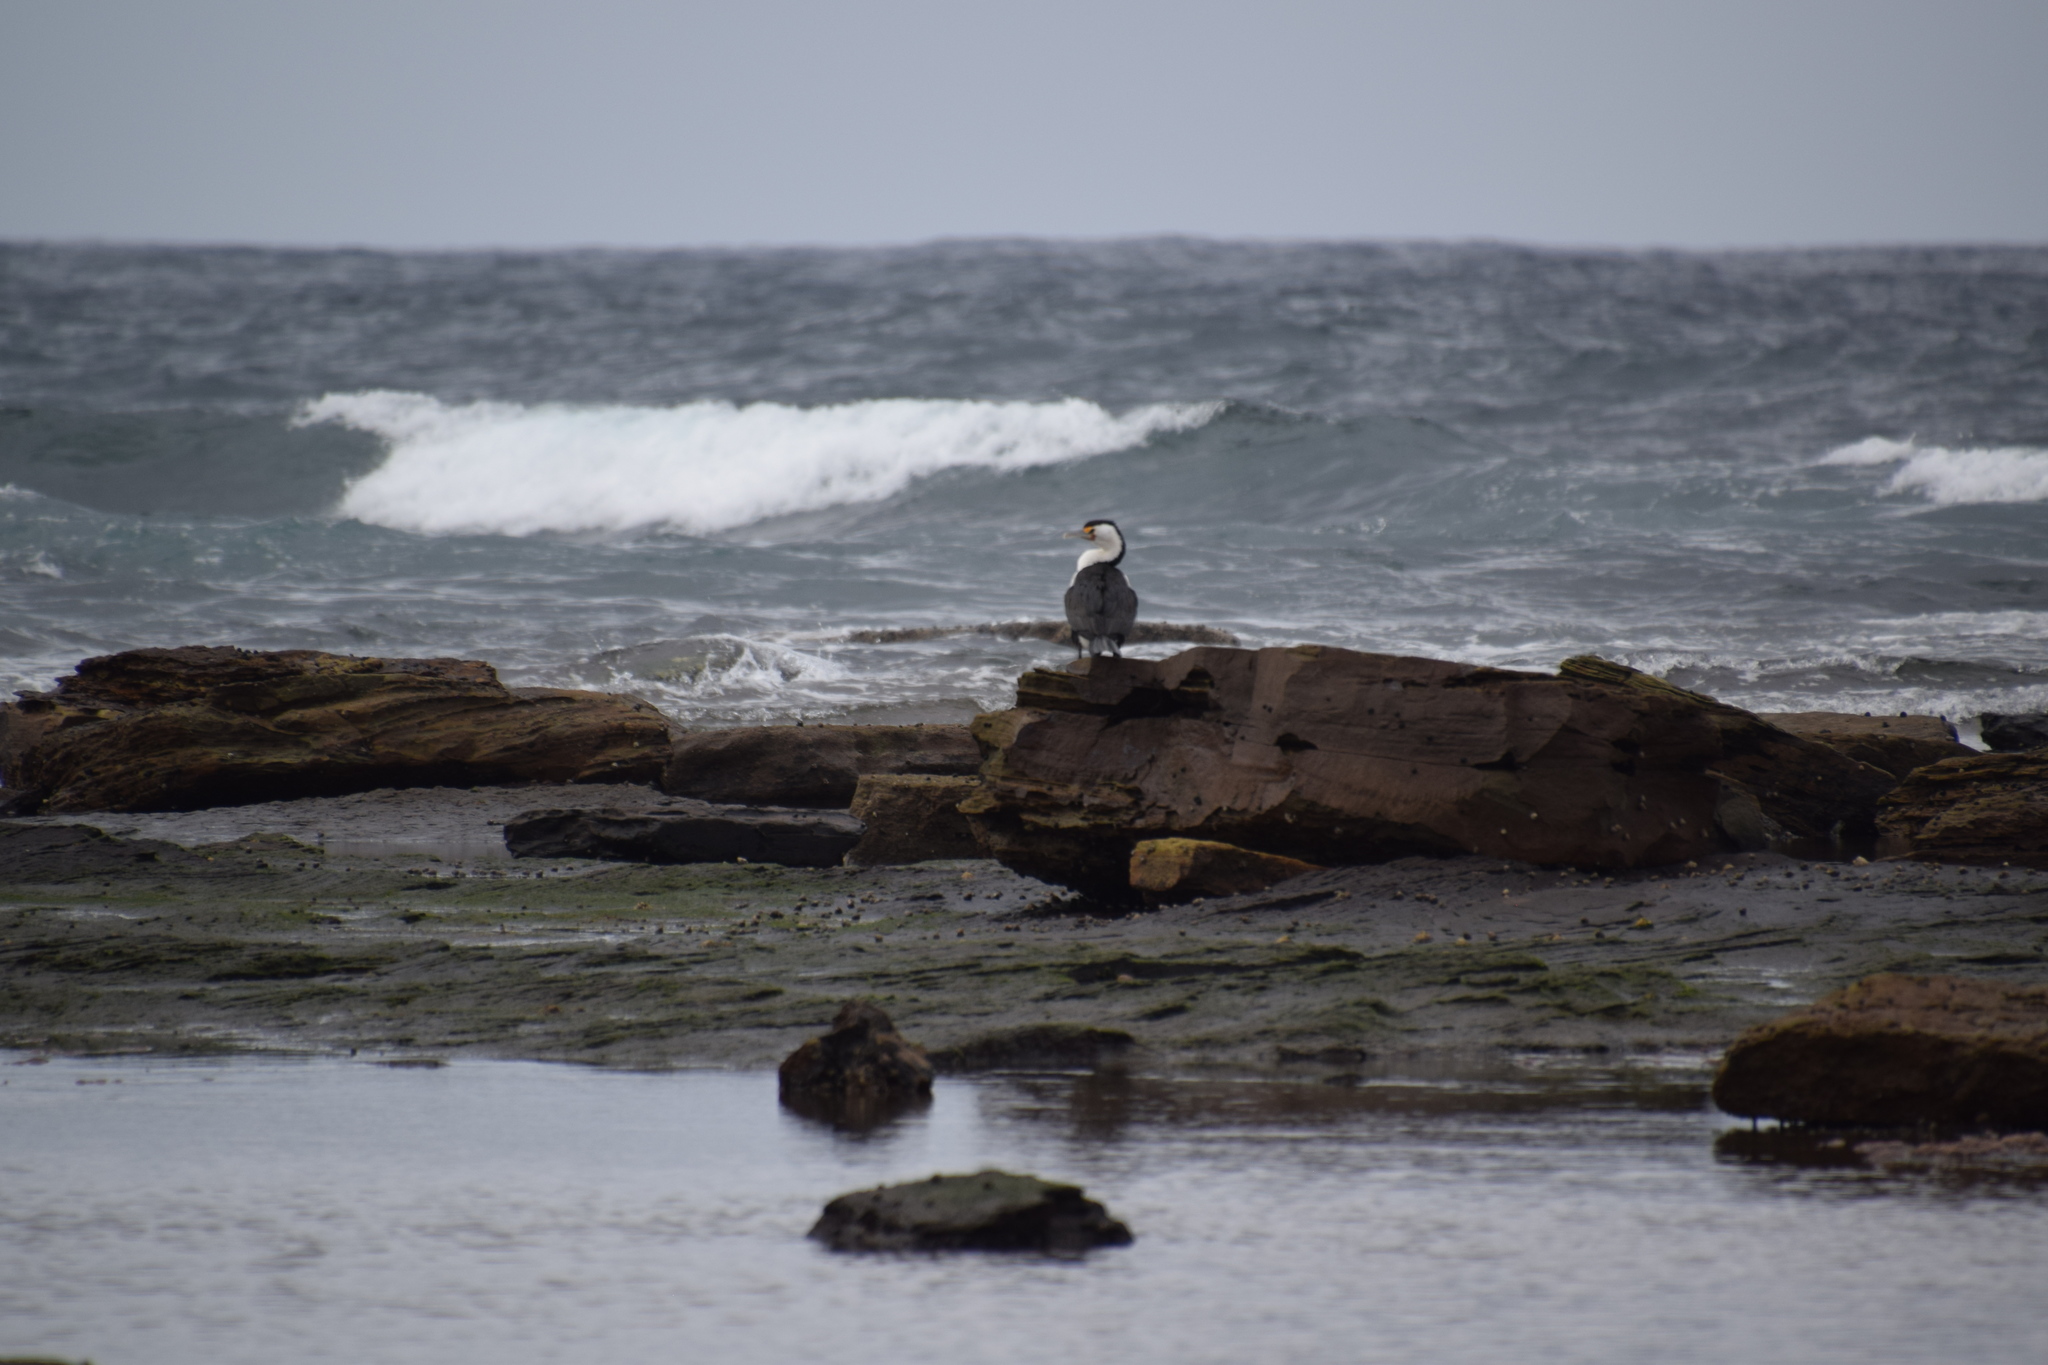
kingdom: Animalia
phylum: Chordata
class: Aves
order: Suliformes
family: Phalacrocoracidae
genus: Phalacrocorax
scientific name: Phalacrocorax varius
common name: Pied cormorant
